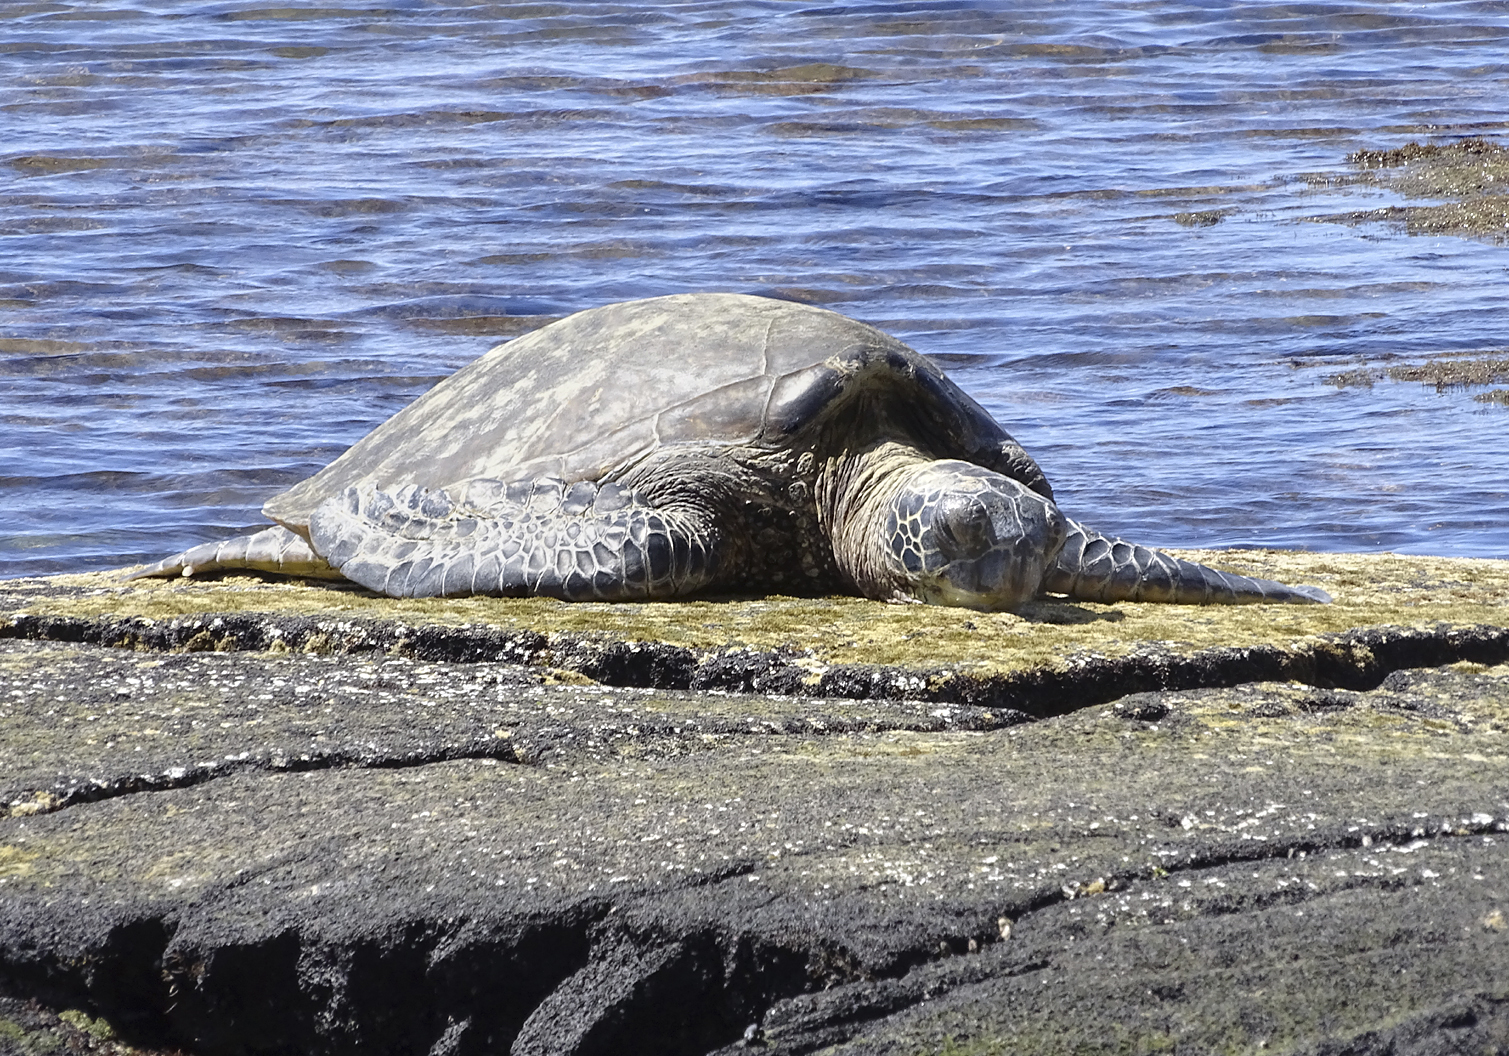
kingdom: Animalia
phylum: Chordata
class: Testudines
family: Cheloniidae
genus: Chelonia
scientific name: Chelonia mydas
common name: Green turtle
